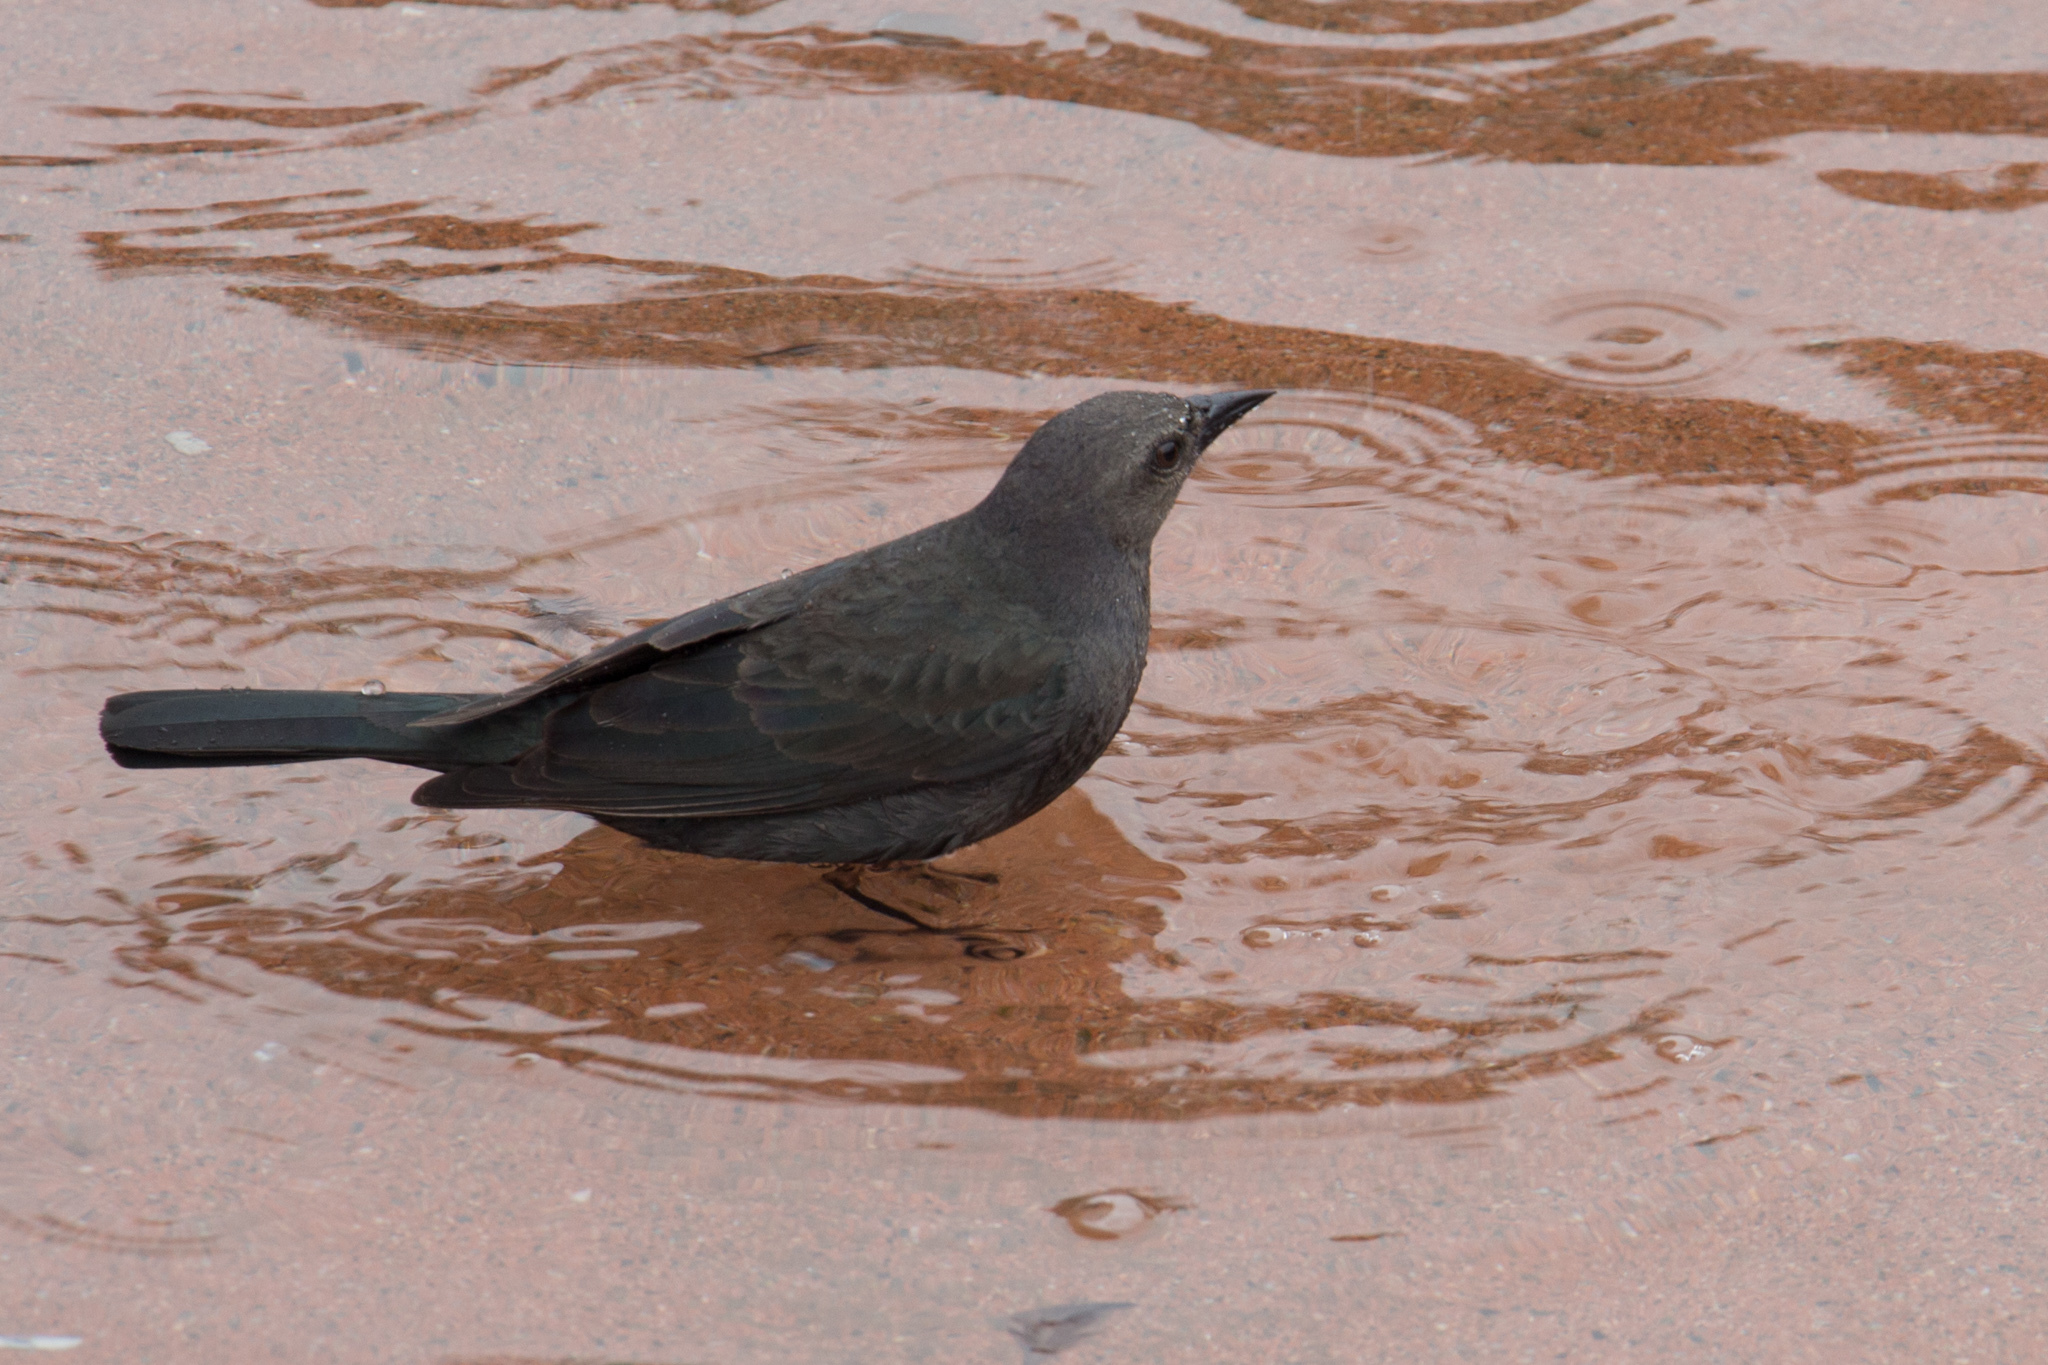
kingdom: Animalia
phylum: Chordata
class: Aves
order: Passeriformes
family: Icteridae
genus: Euphagus
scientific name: Euphagus cyanocephalus
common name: Brewer's blackbird
